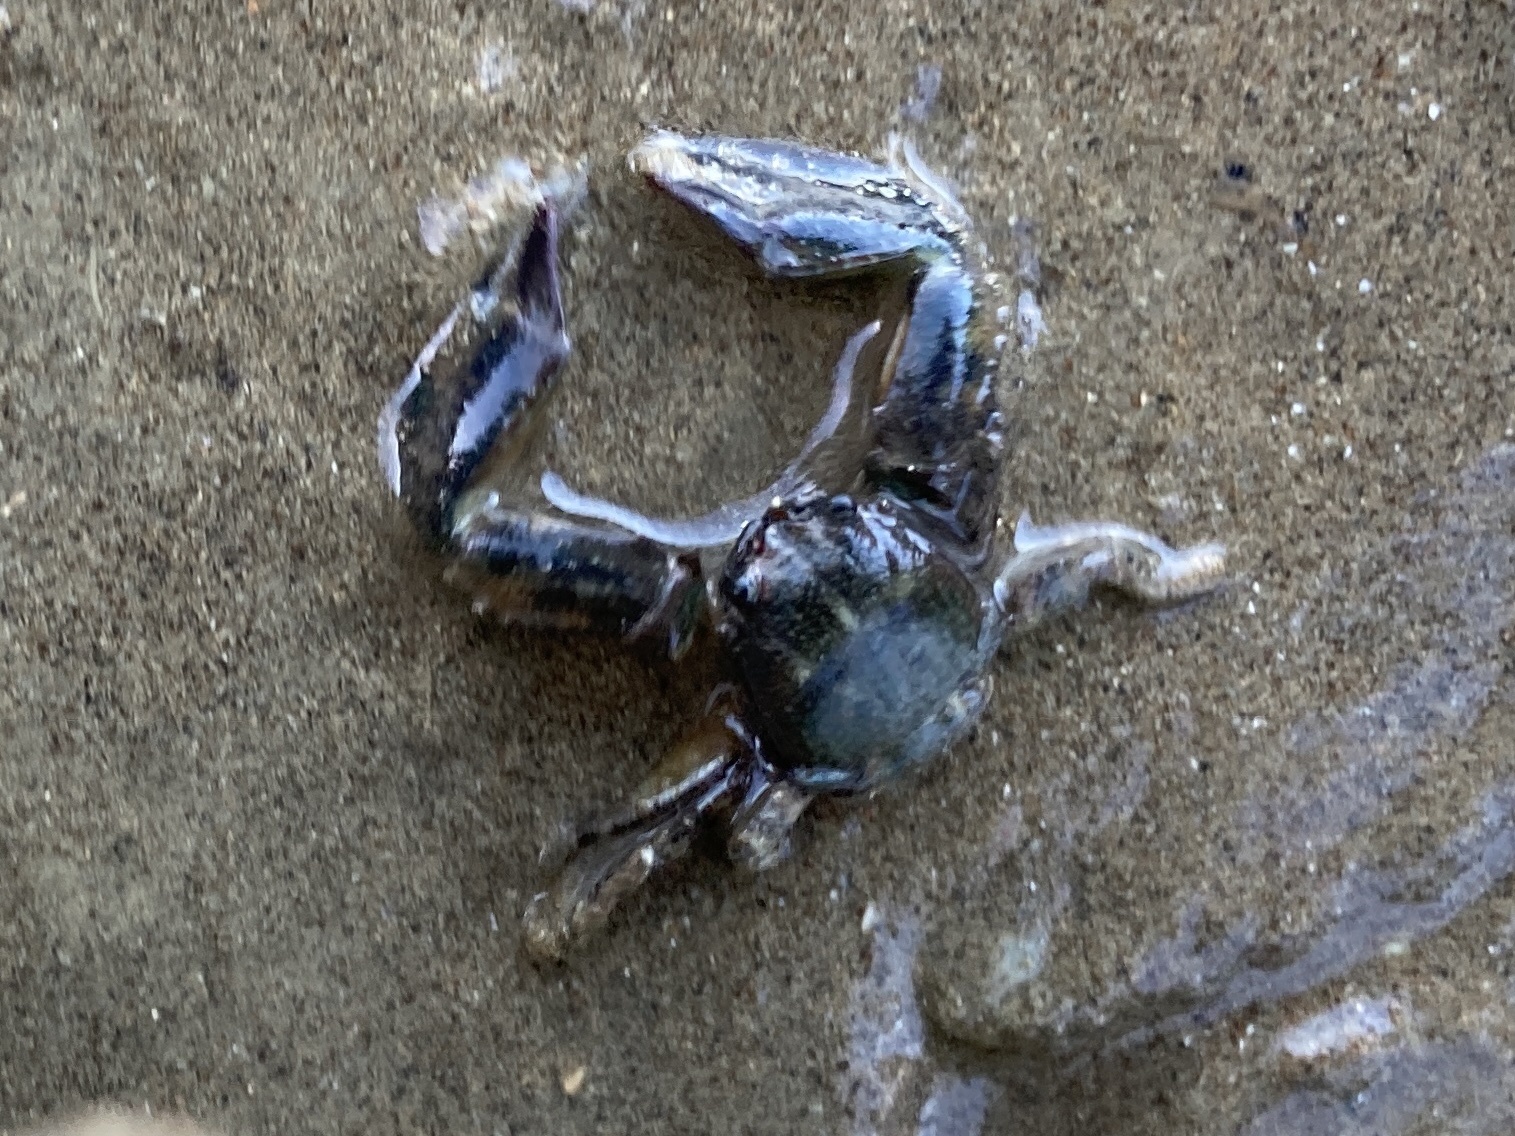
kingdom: Animalia
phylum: Arthropoda
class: Malacostraca
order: Decapoda
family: Porcellanidae
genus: Petrolisthes
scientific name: Petrolisthes elongatus
